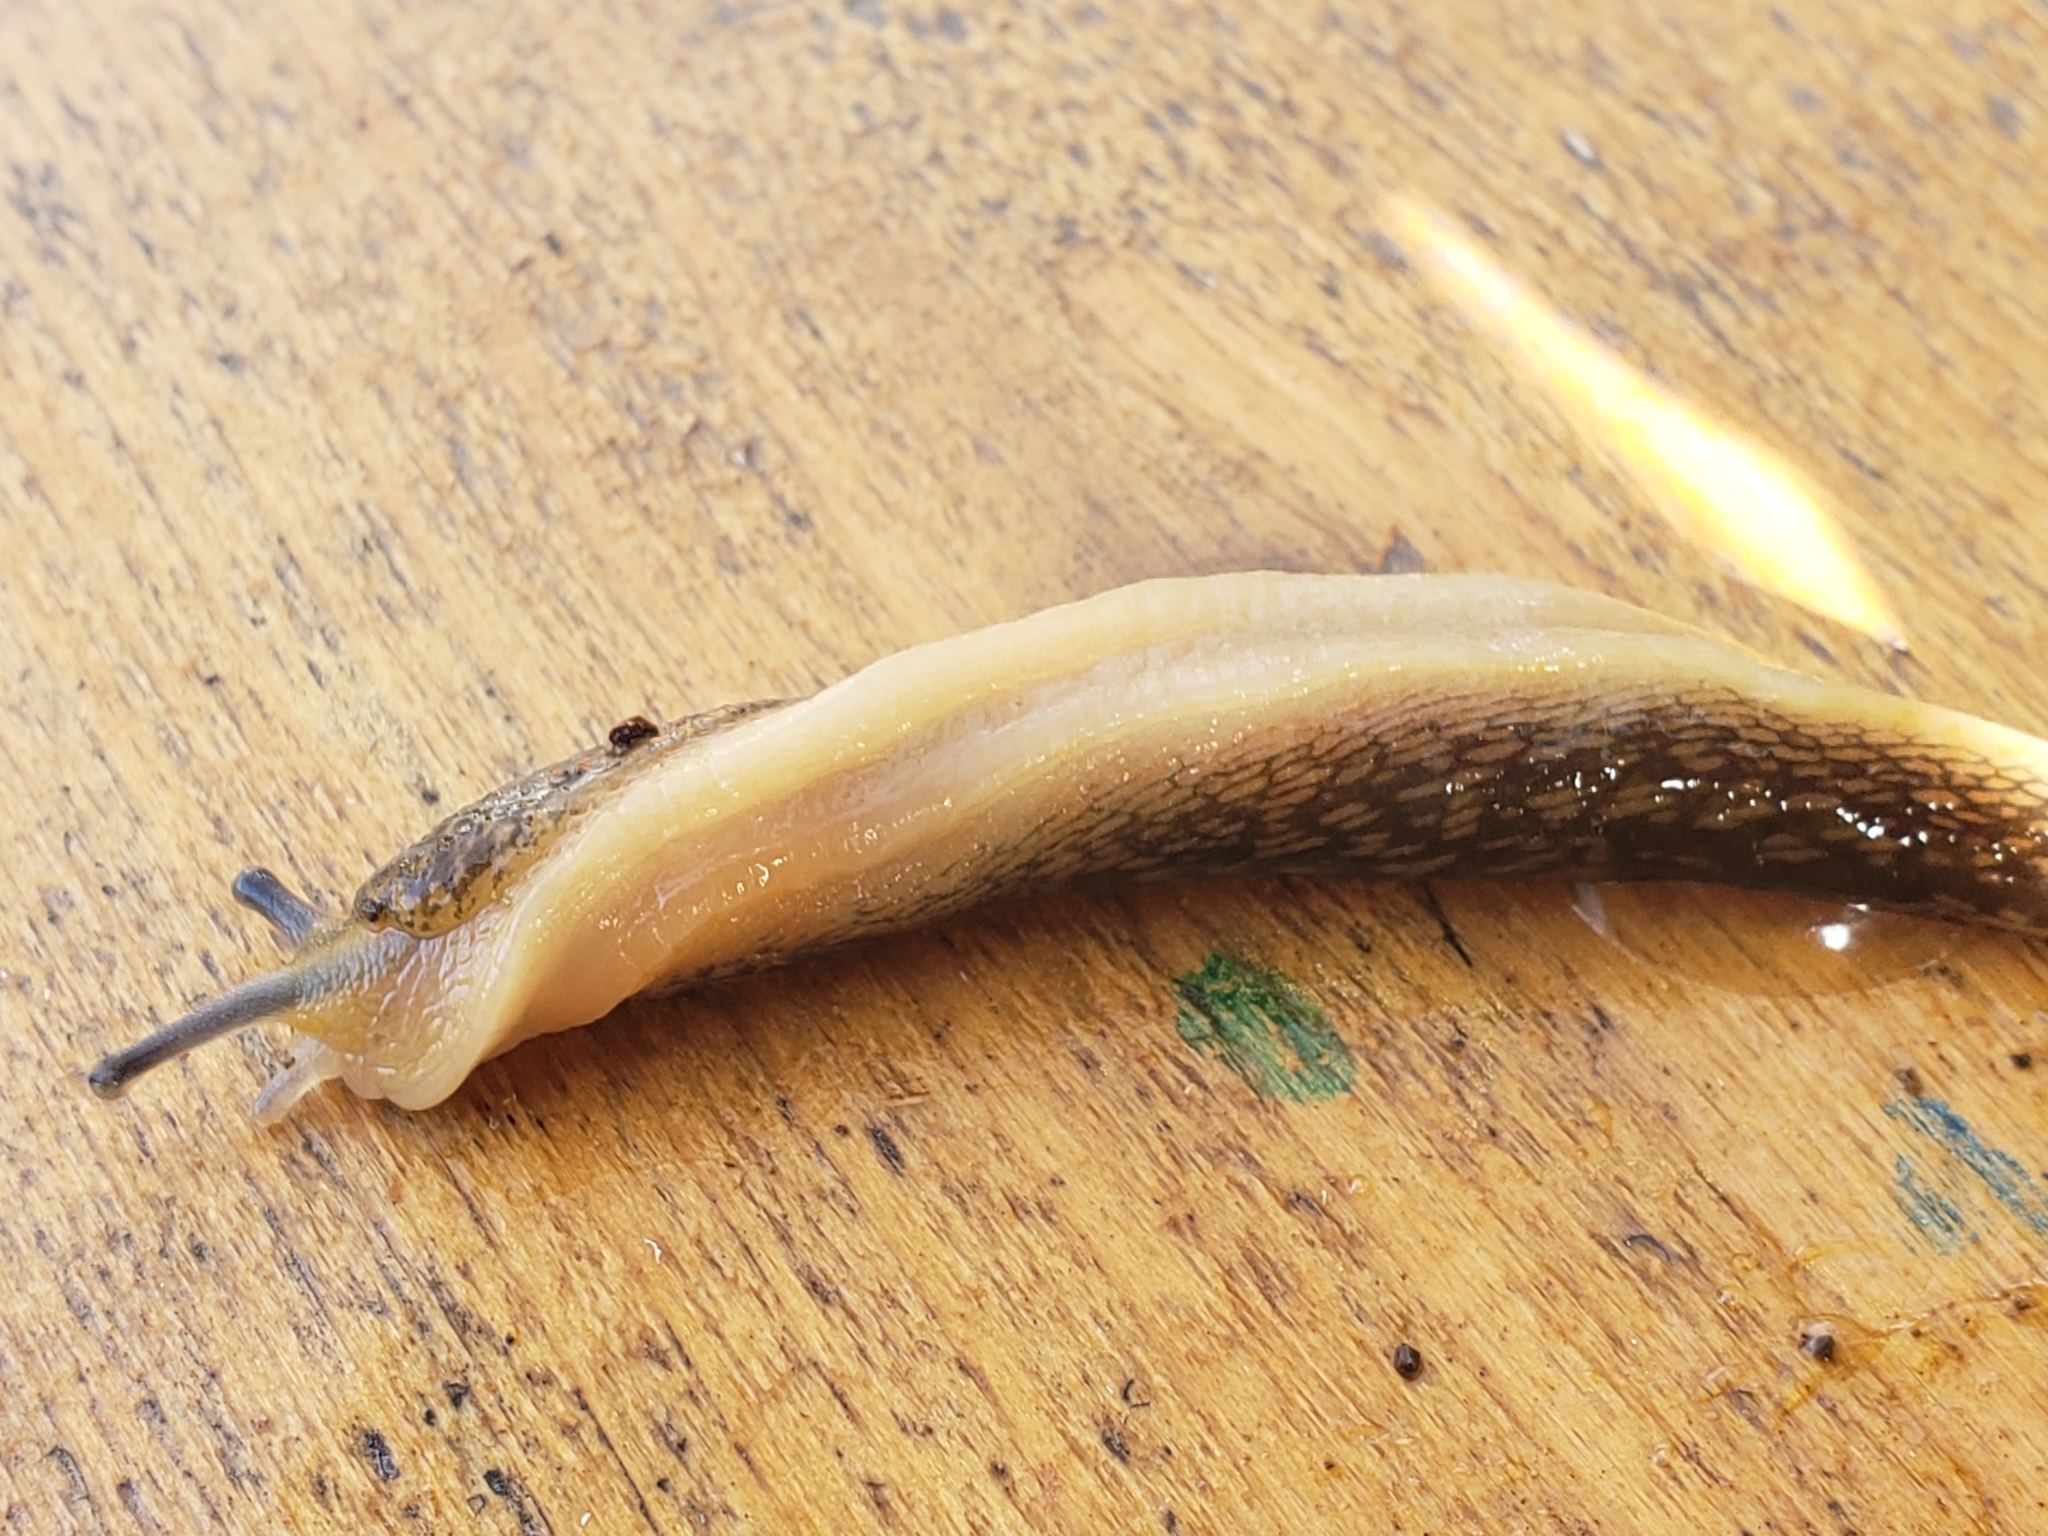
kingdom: Animalia
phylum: Mollusca
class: Gastropoda
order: Stylommatophora
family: Limacidae
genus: Limacus
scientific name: Limacus flavus
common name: Yellow gardenslug
